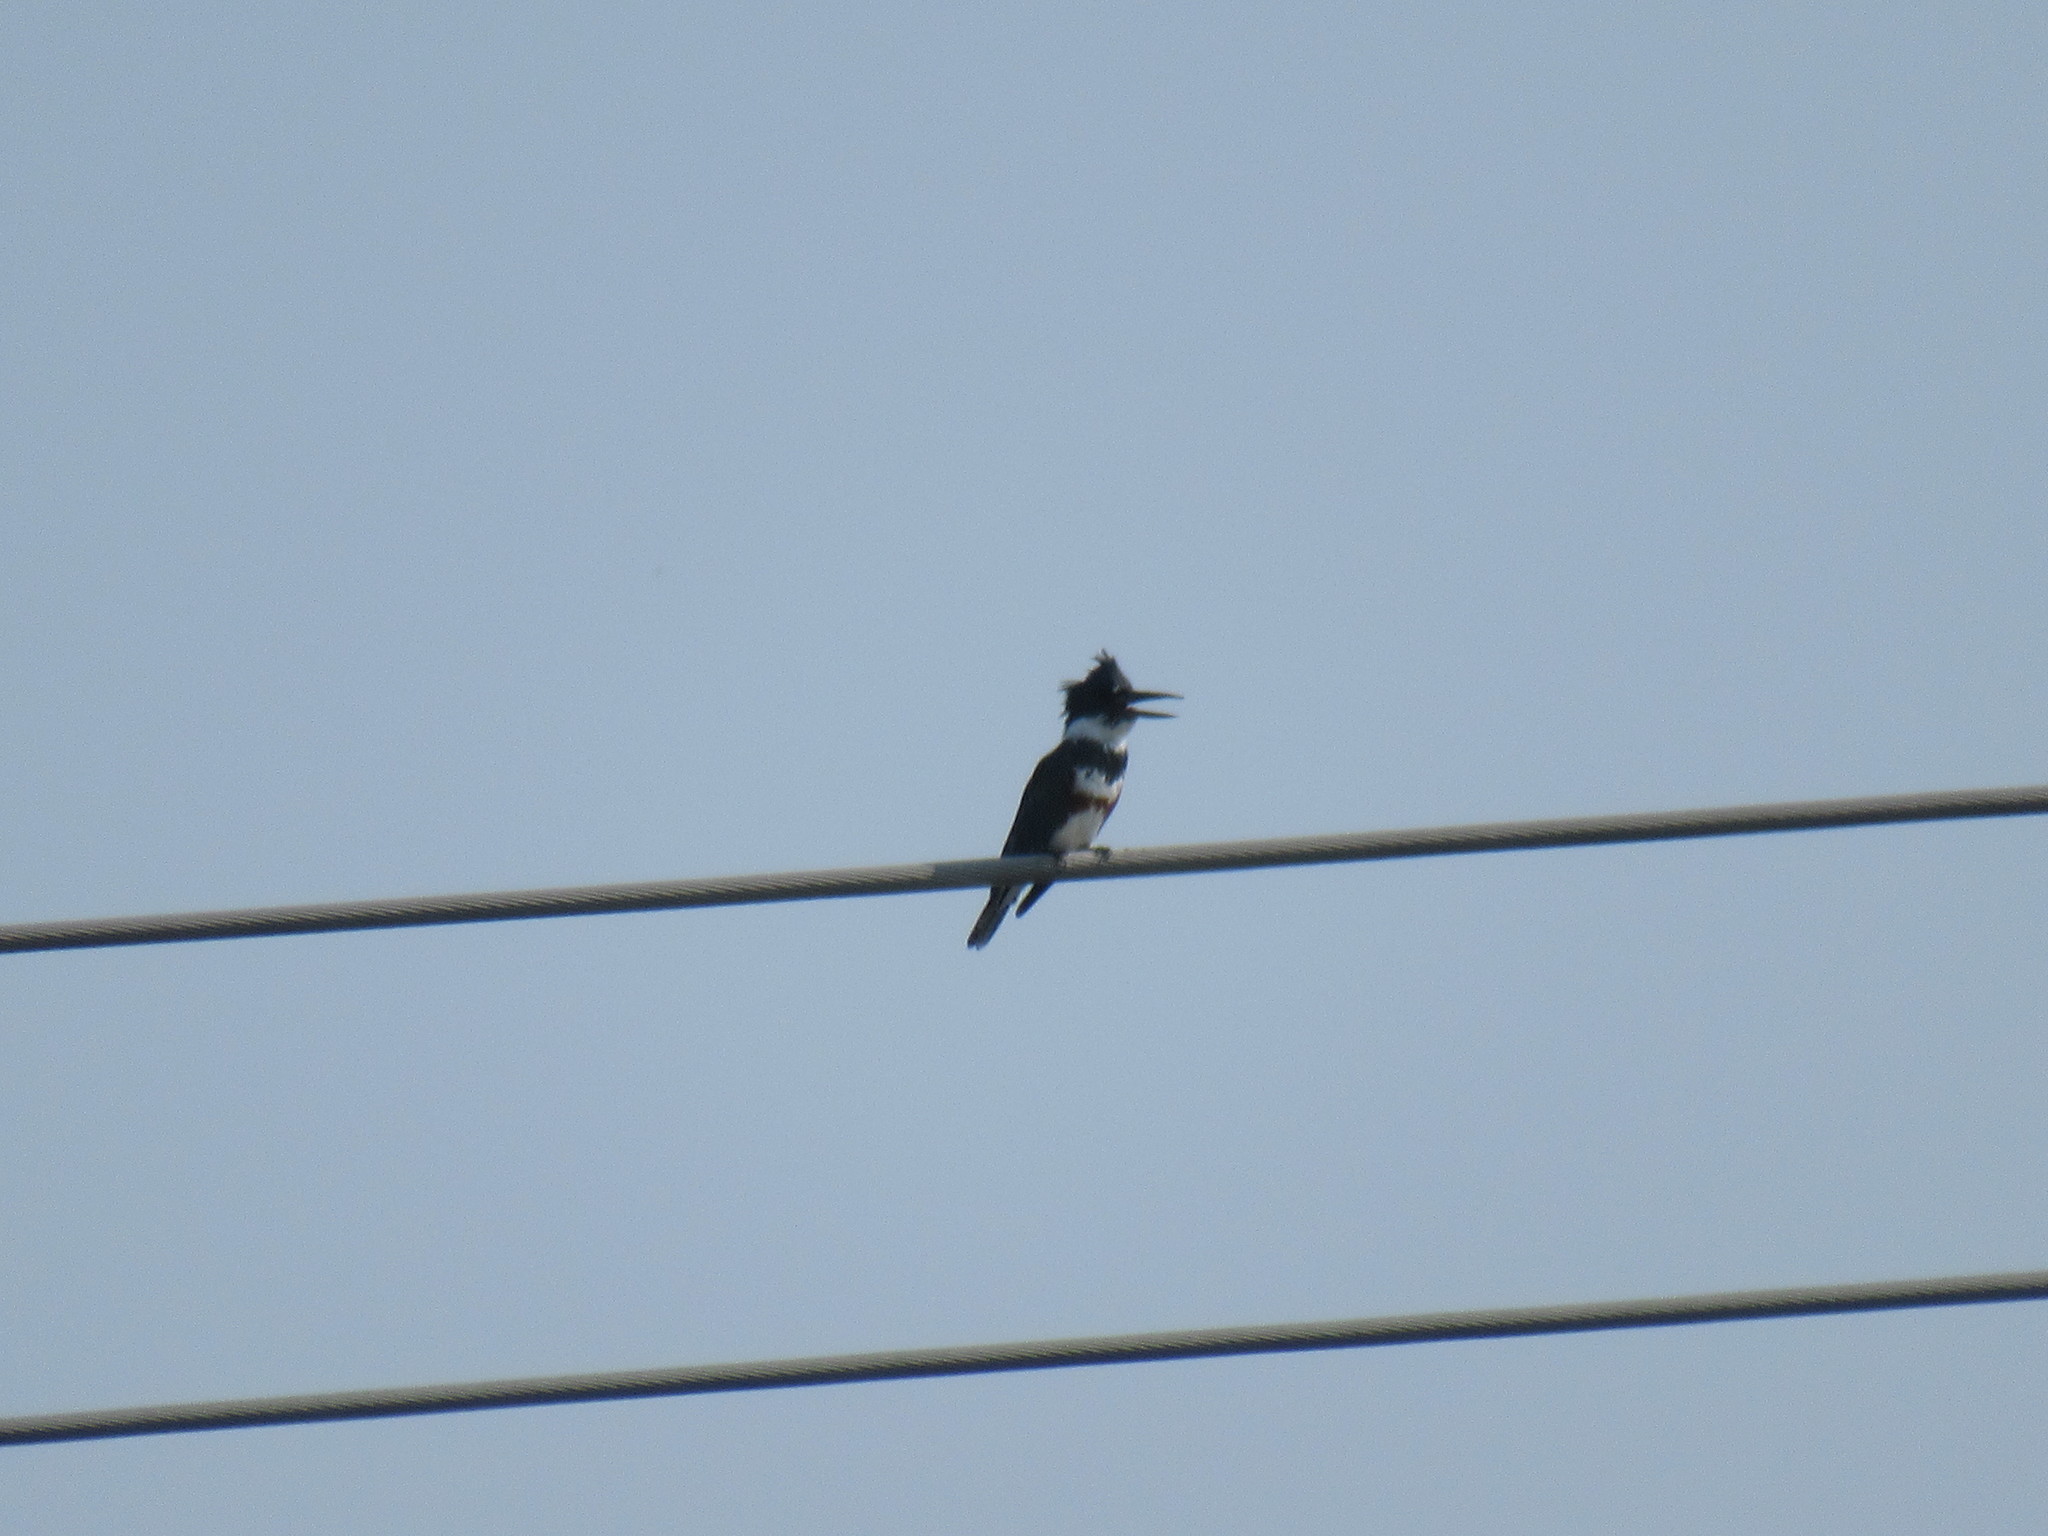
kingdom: Animalia
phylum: Chordata
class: Aves
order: Coraciiformes
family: Alcedinidae
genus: Megaceryle
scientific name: Megaceryle alcyon
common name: Belted kingfisher
